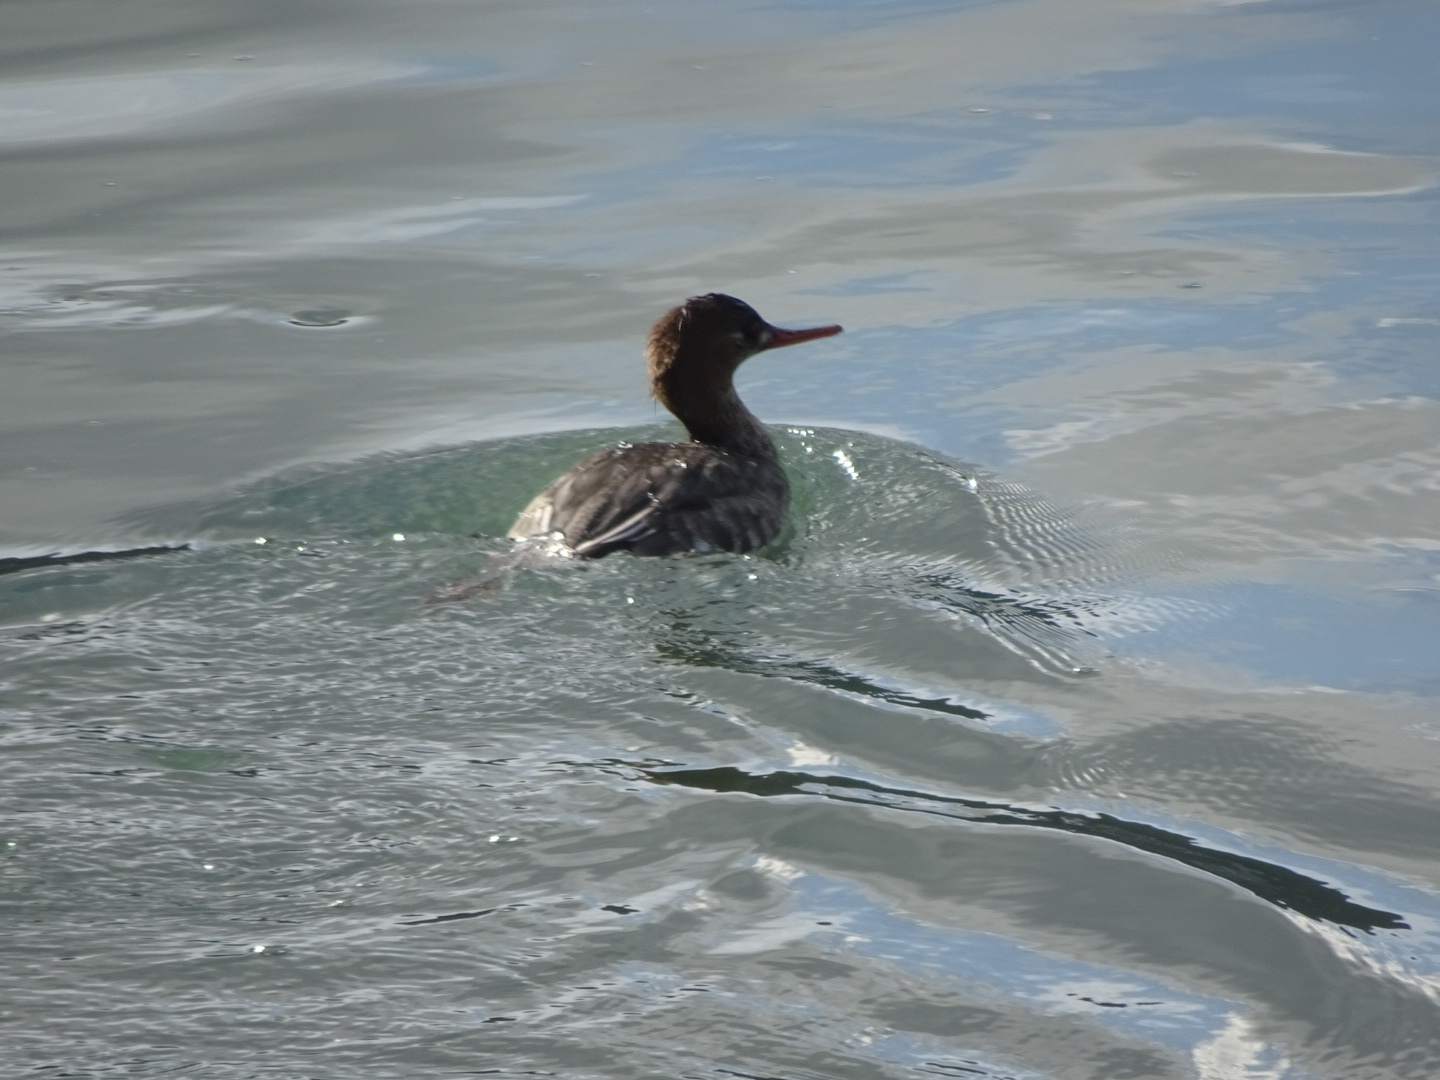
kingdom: Animalia
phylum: Chordata
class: Aves
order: Anseriformes
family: Anatidae
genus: Mergus
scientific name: Mergus serrator
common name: Red-breasted merganser
